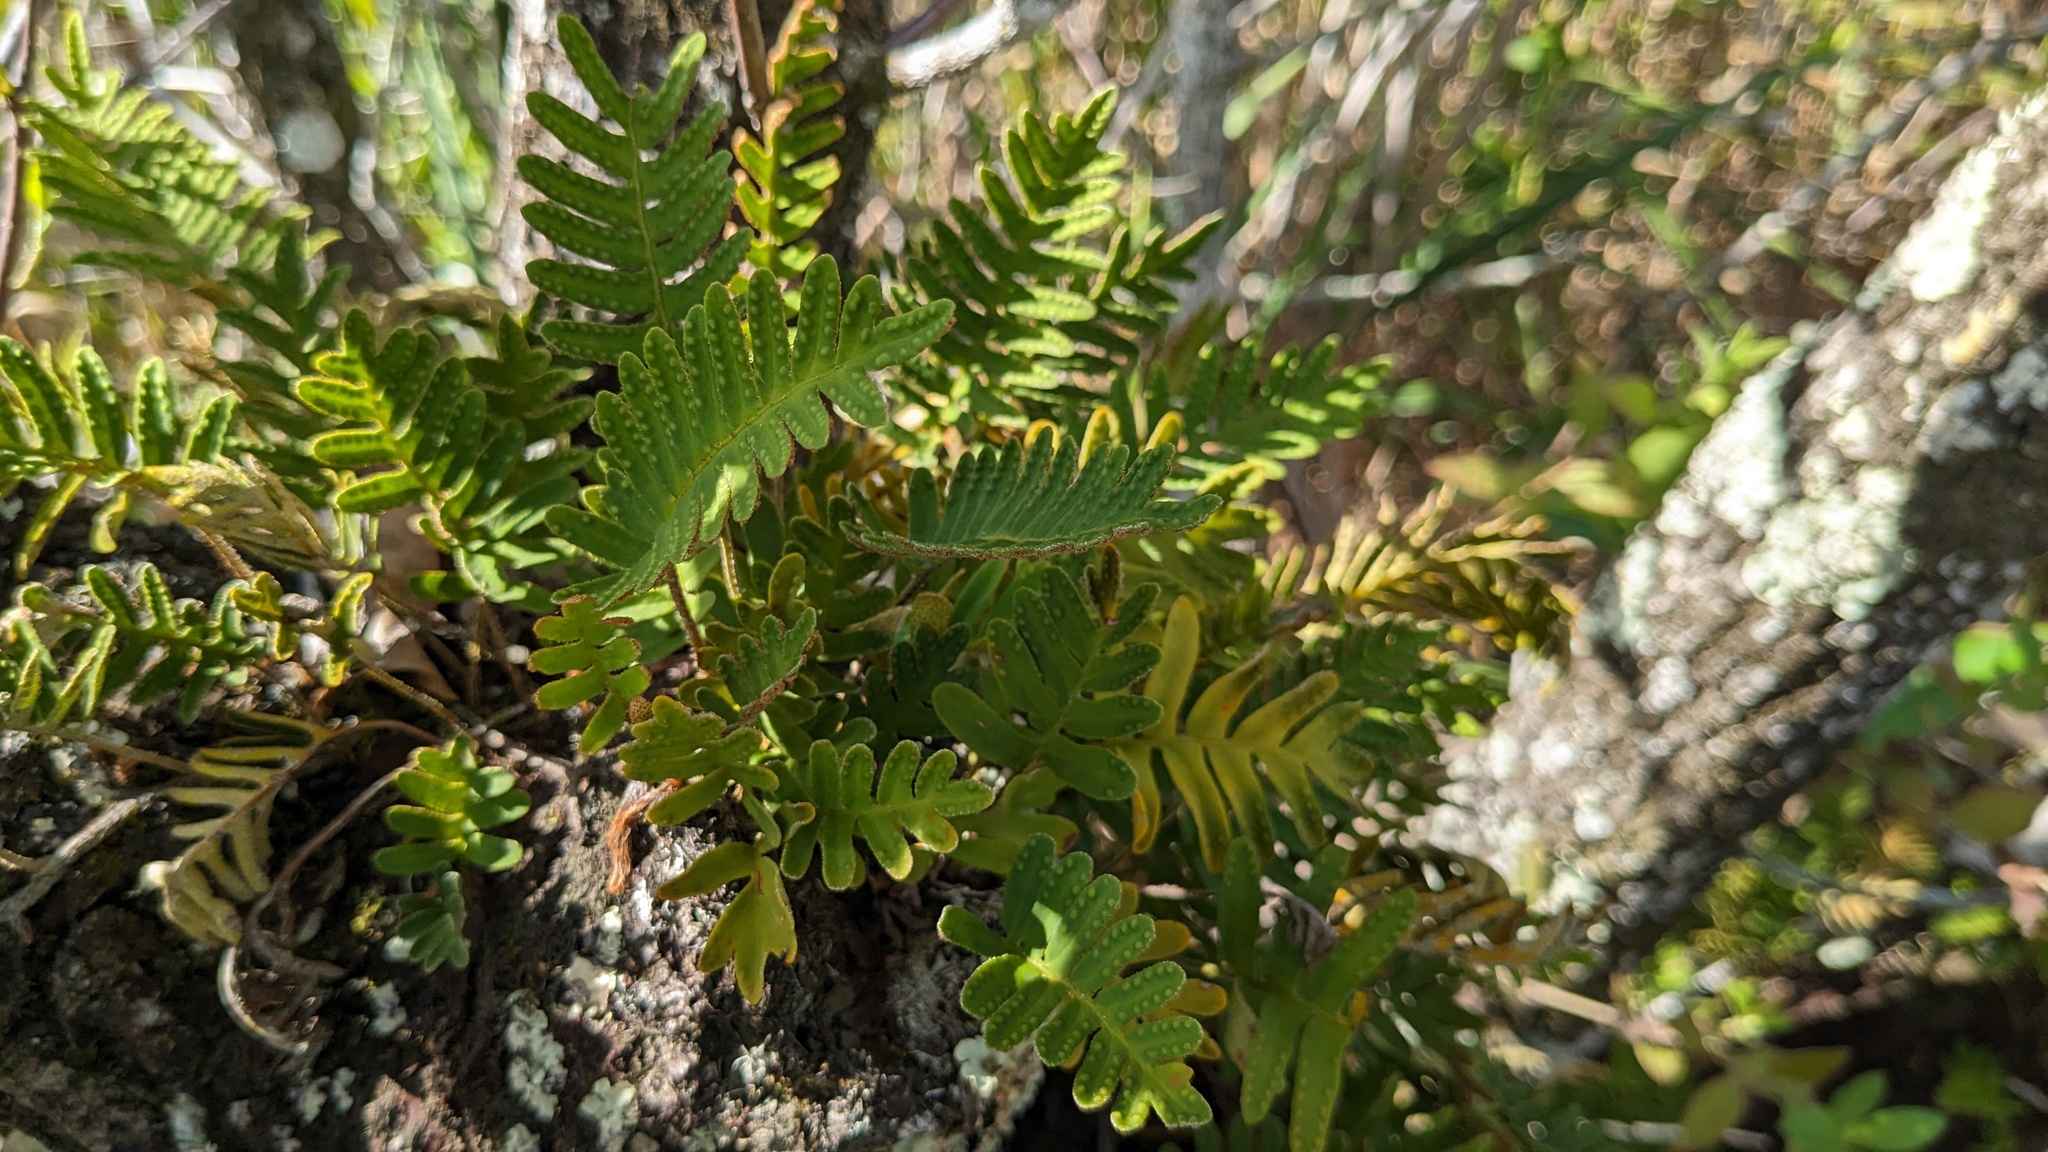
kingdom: Plantae
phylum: Tracheophyta
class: Polypodiopsida
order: Polypodiales
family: Polypodiaceae
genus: Pleopeltis
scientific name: Pleopeltis michauxiana
